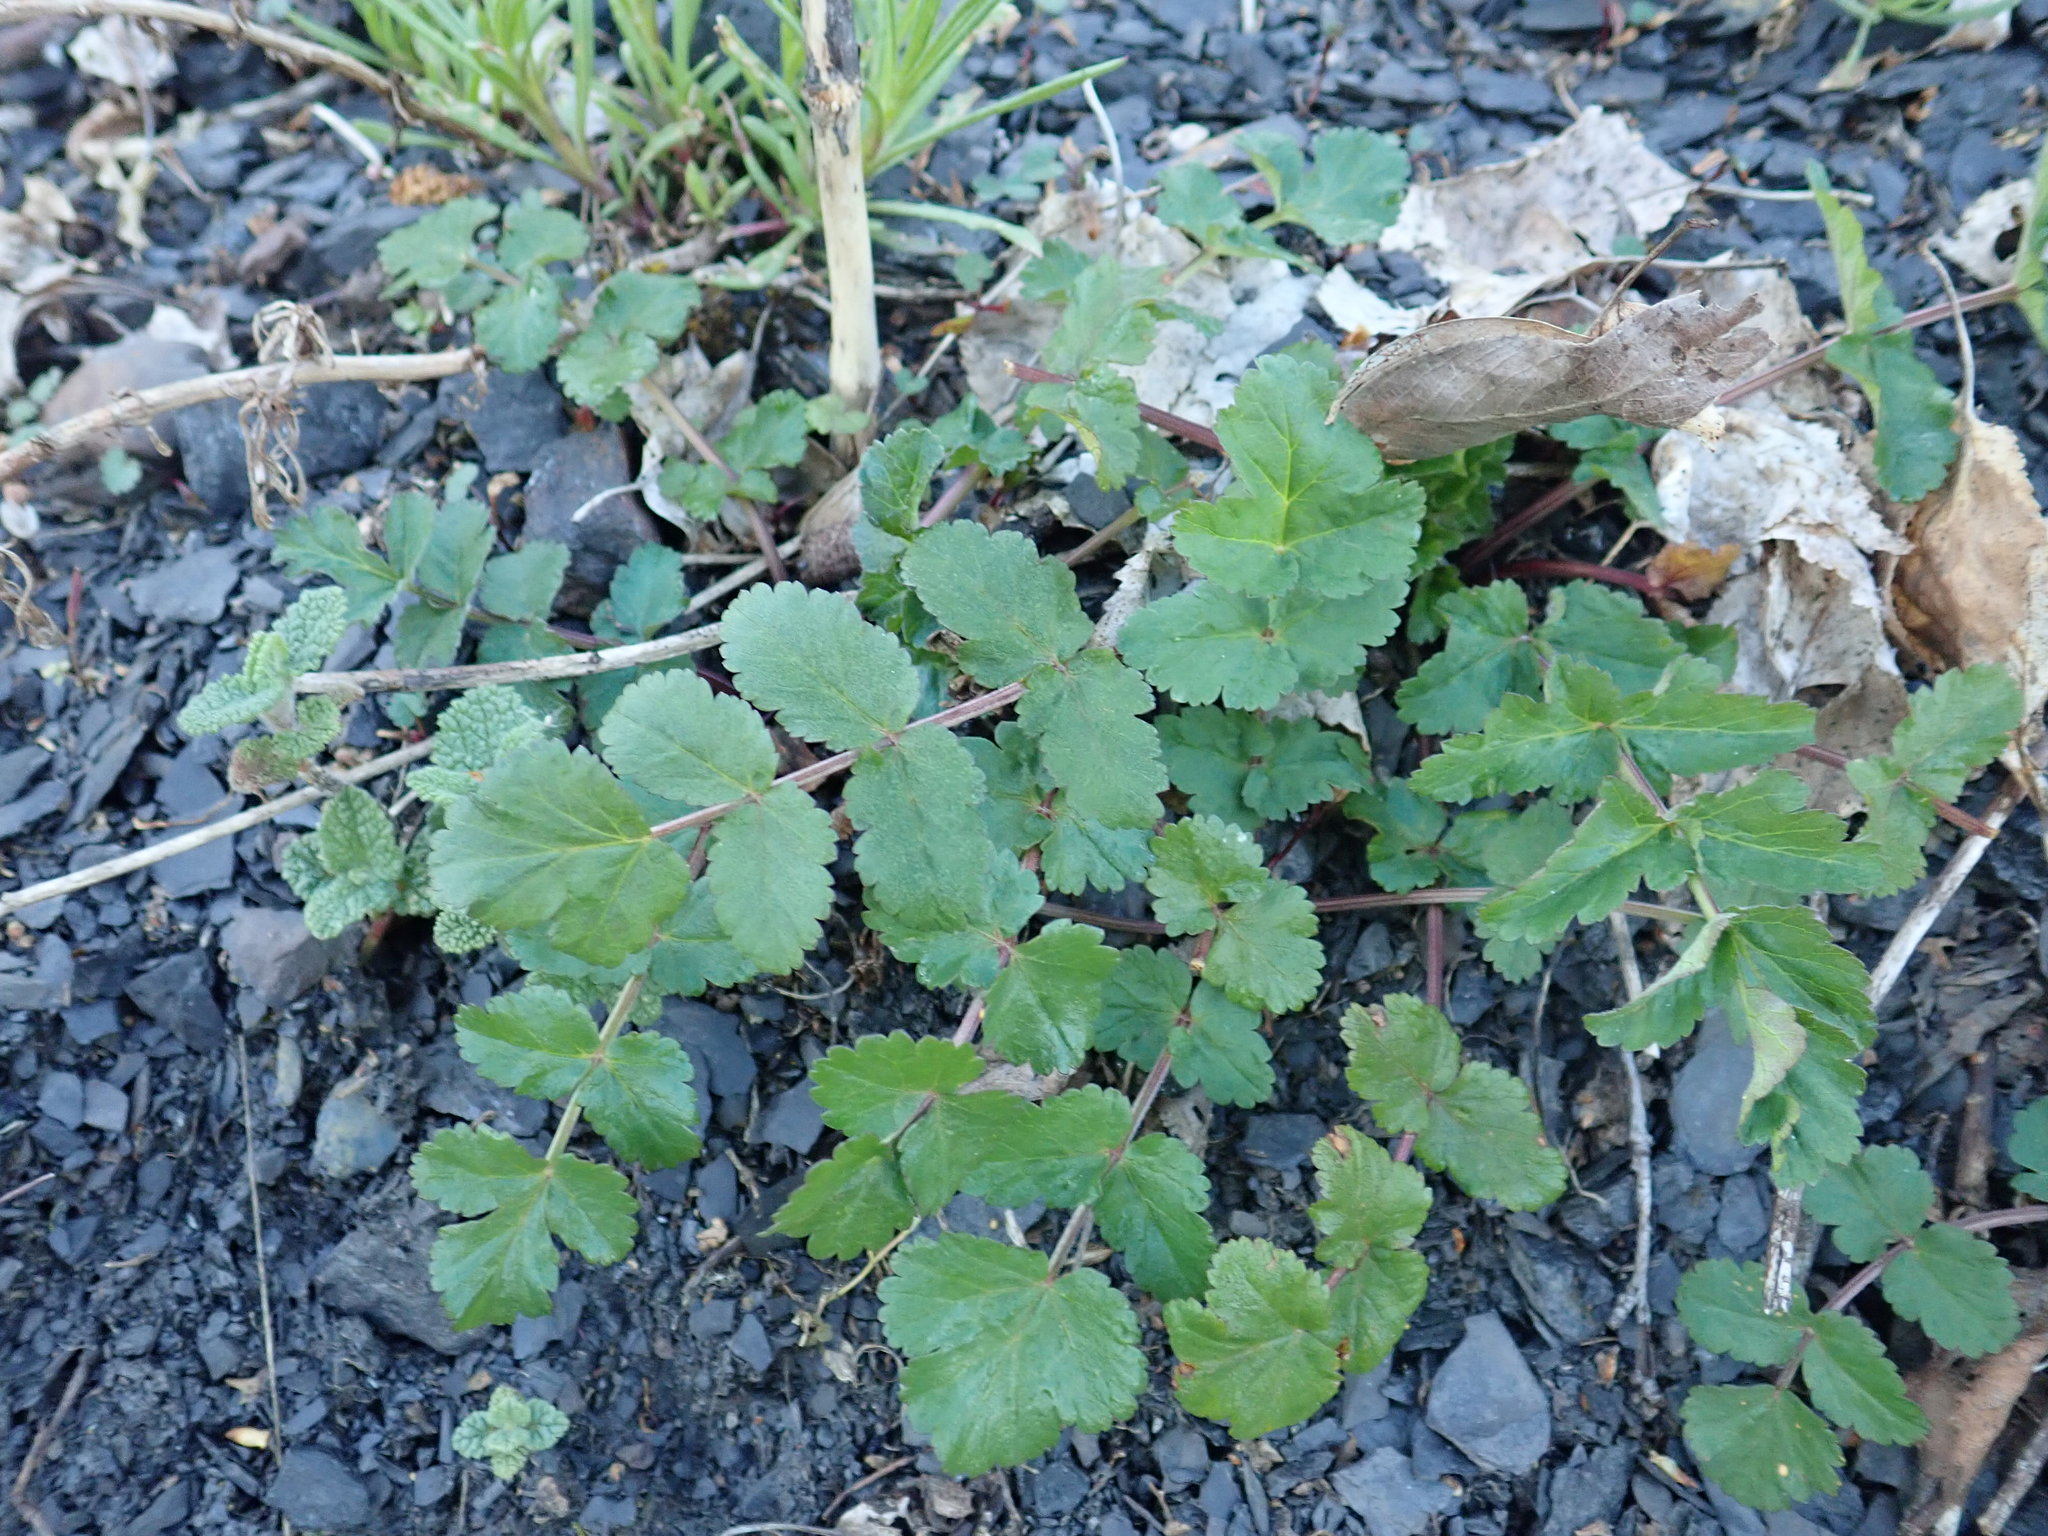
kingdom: Plantae
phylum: Tracheophyta
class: Magnoliopsida
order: Apiales
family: Apiaceae
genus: Pastinaca
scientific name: Pastinaca sativa
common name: Wild parsnip
